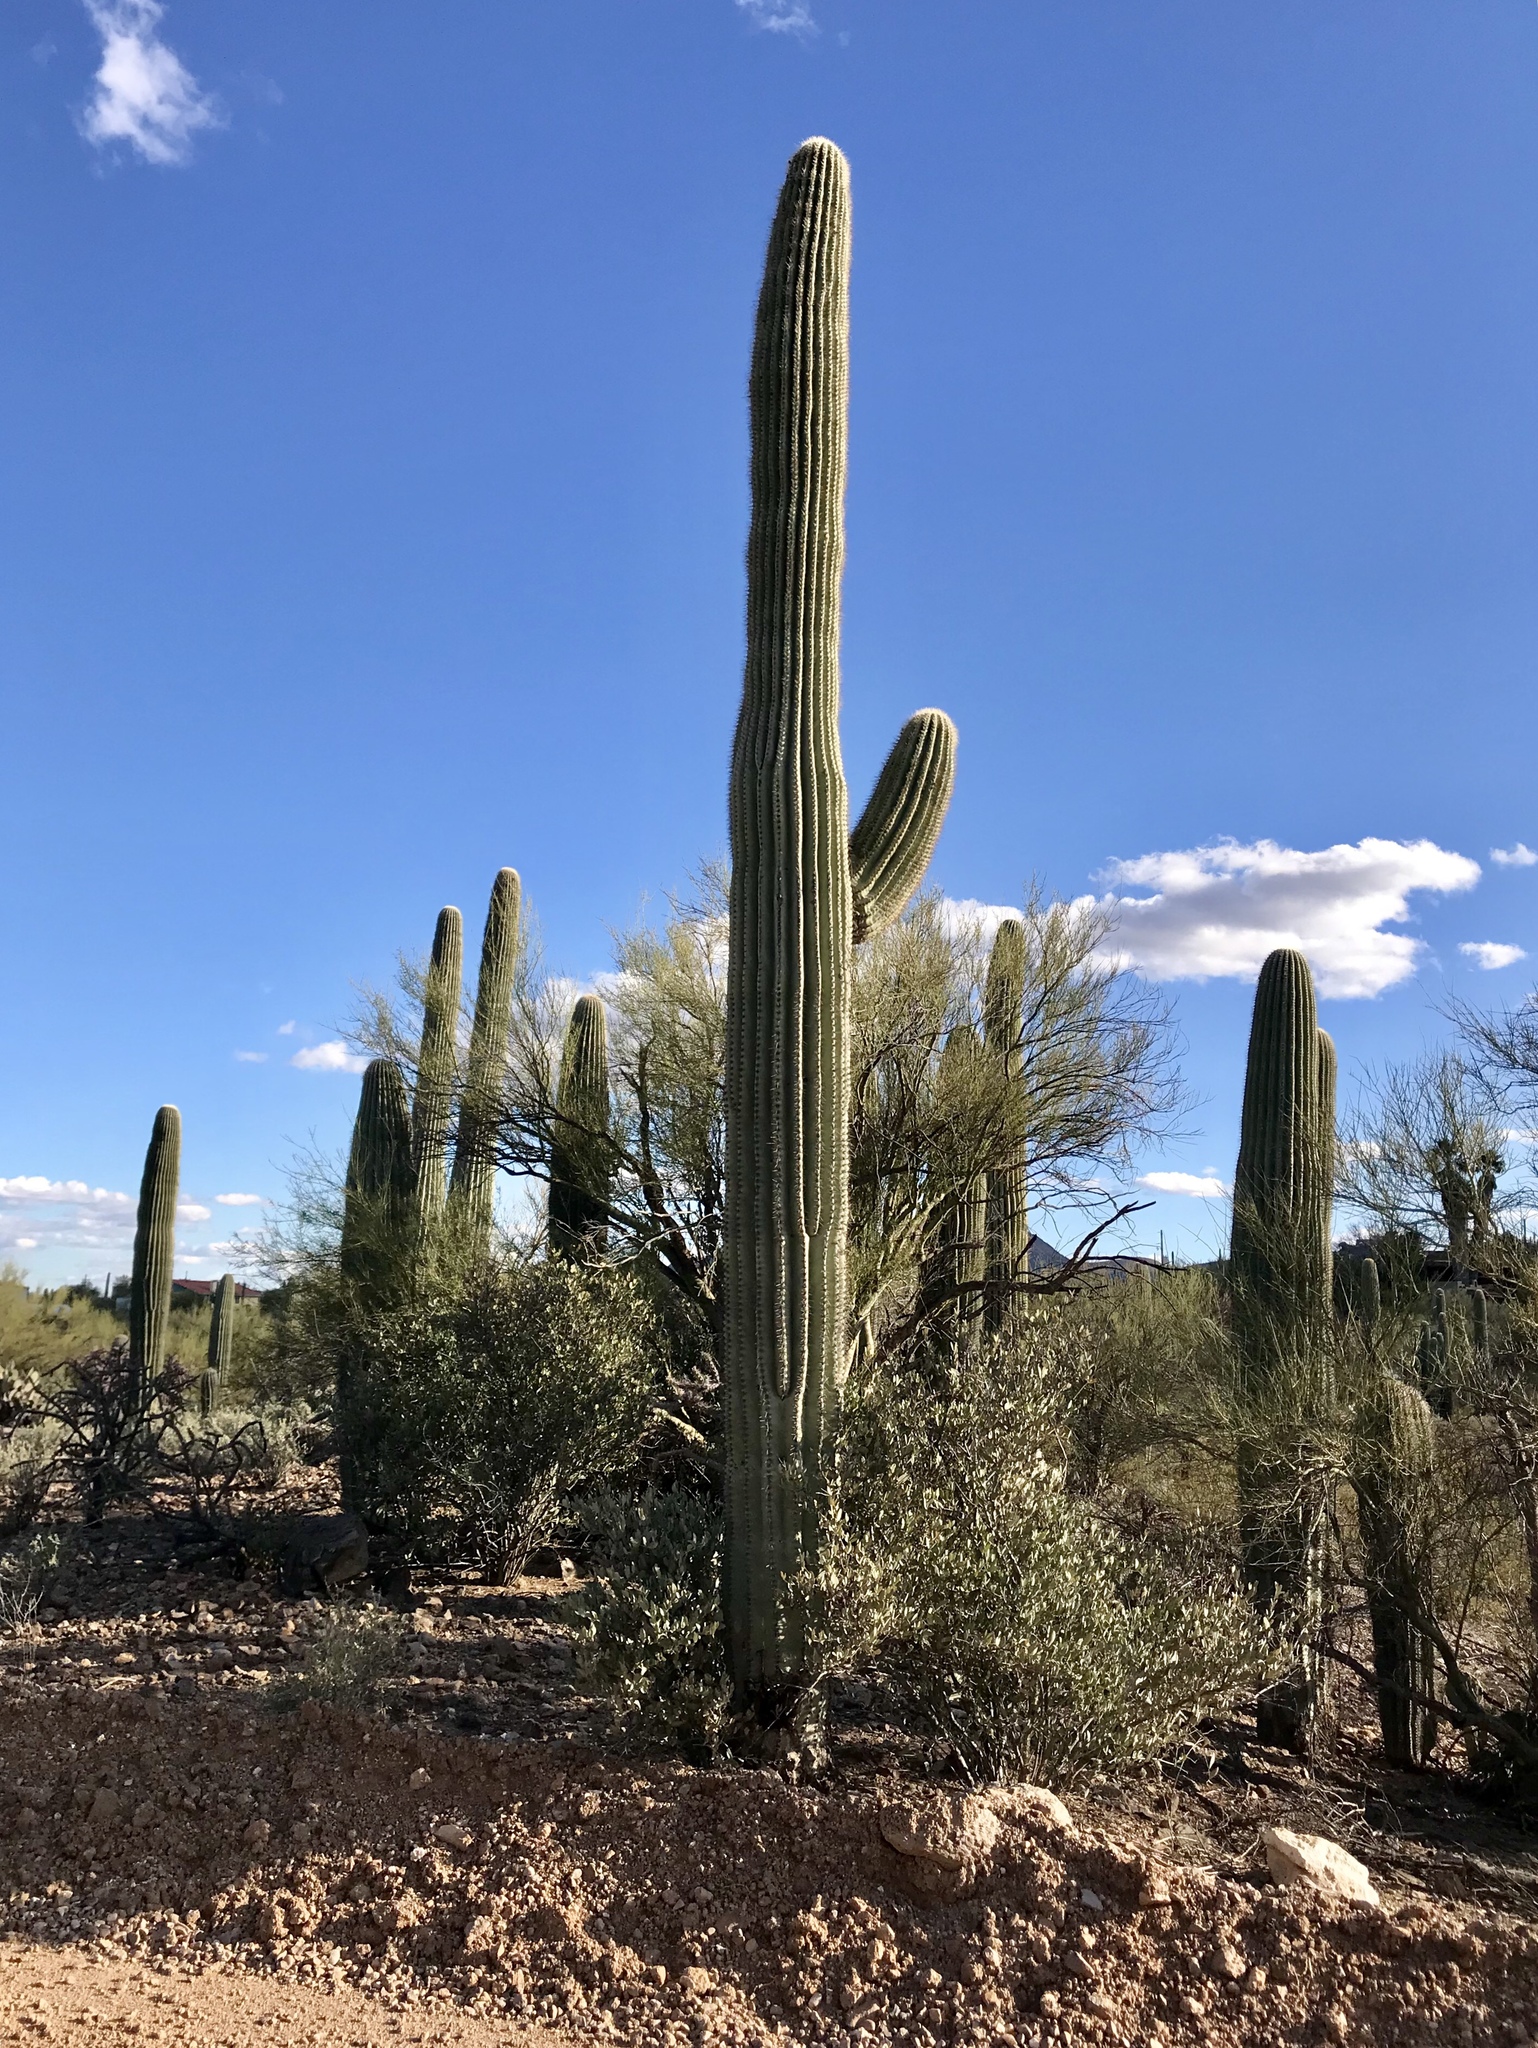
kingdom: Plantae
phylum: Tracheophyta
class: Magnoliopsida
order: Caryophyllales
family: Cactaceae
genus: Carnegiea
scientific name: Carnegiea gigantea
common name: Saguaro
